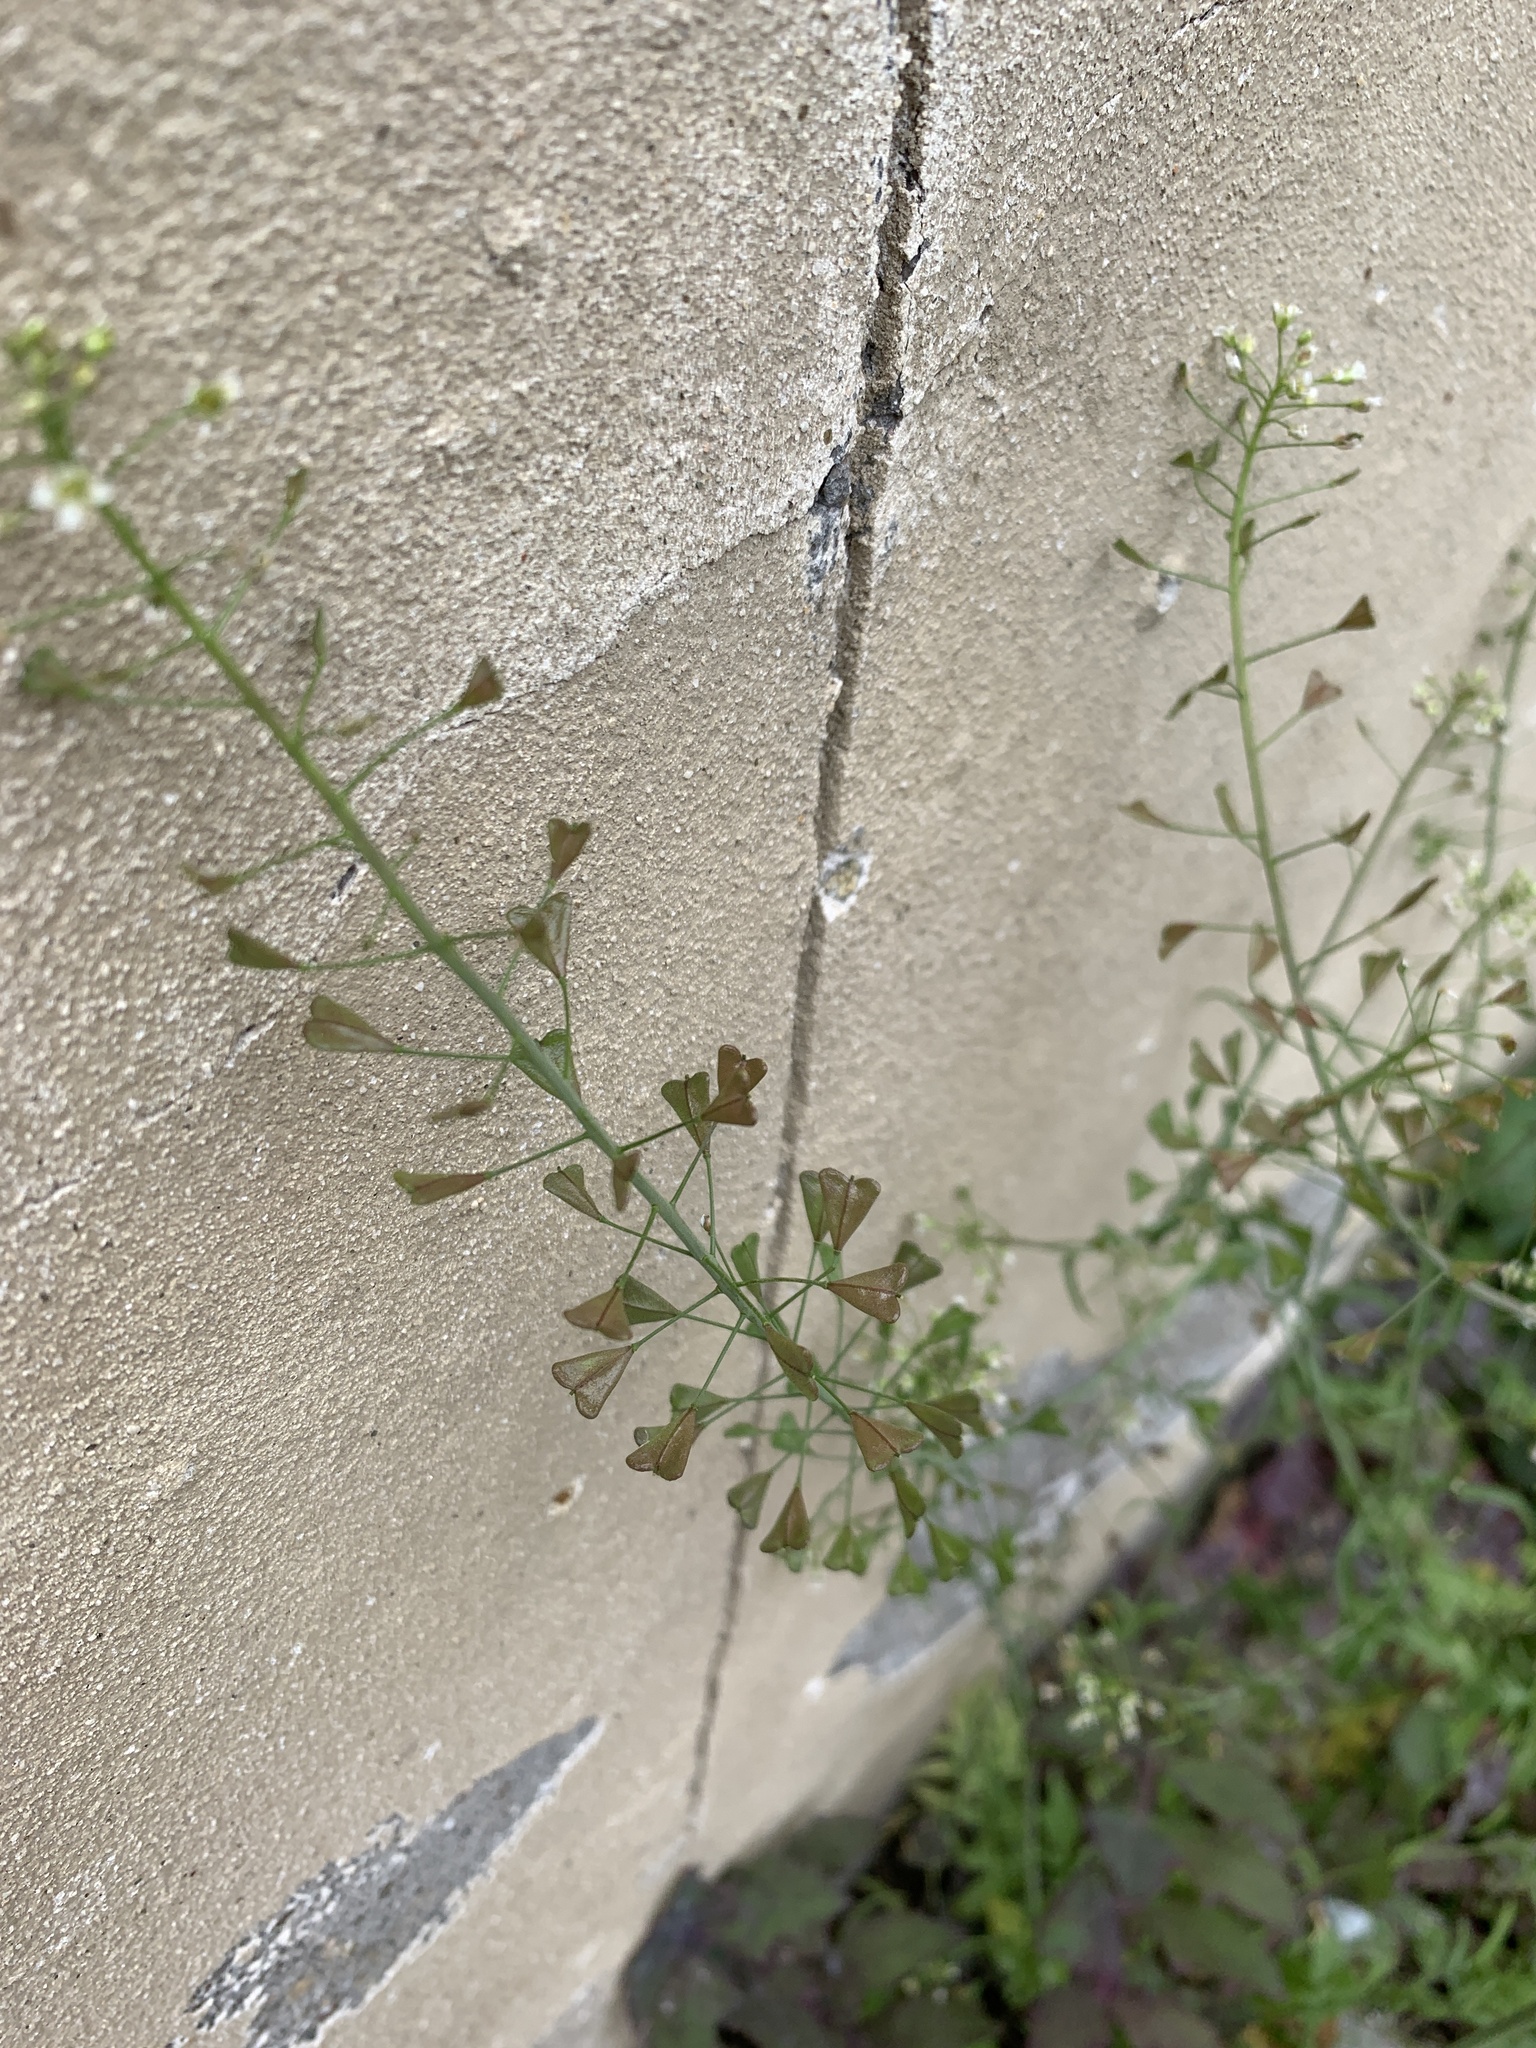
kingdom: Plantae
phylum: Tracheophyta
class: Magnoliopsida
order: Brassicales
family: Brassicaceae
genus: Capsella
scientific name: Capsella bursa-pastoris
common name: Shepherd's purse
